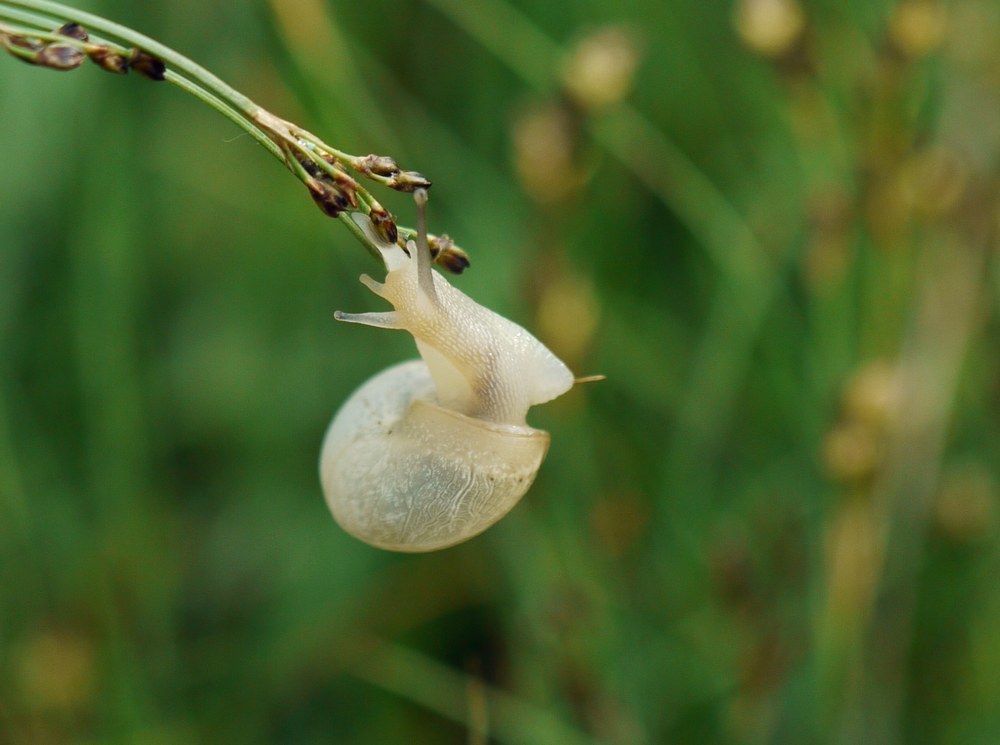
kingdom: Animalia
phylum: Mollusca
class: Gastropoda
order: Stylommatophora
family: Hygromiidae
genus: Monacha
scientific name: Monacha
